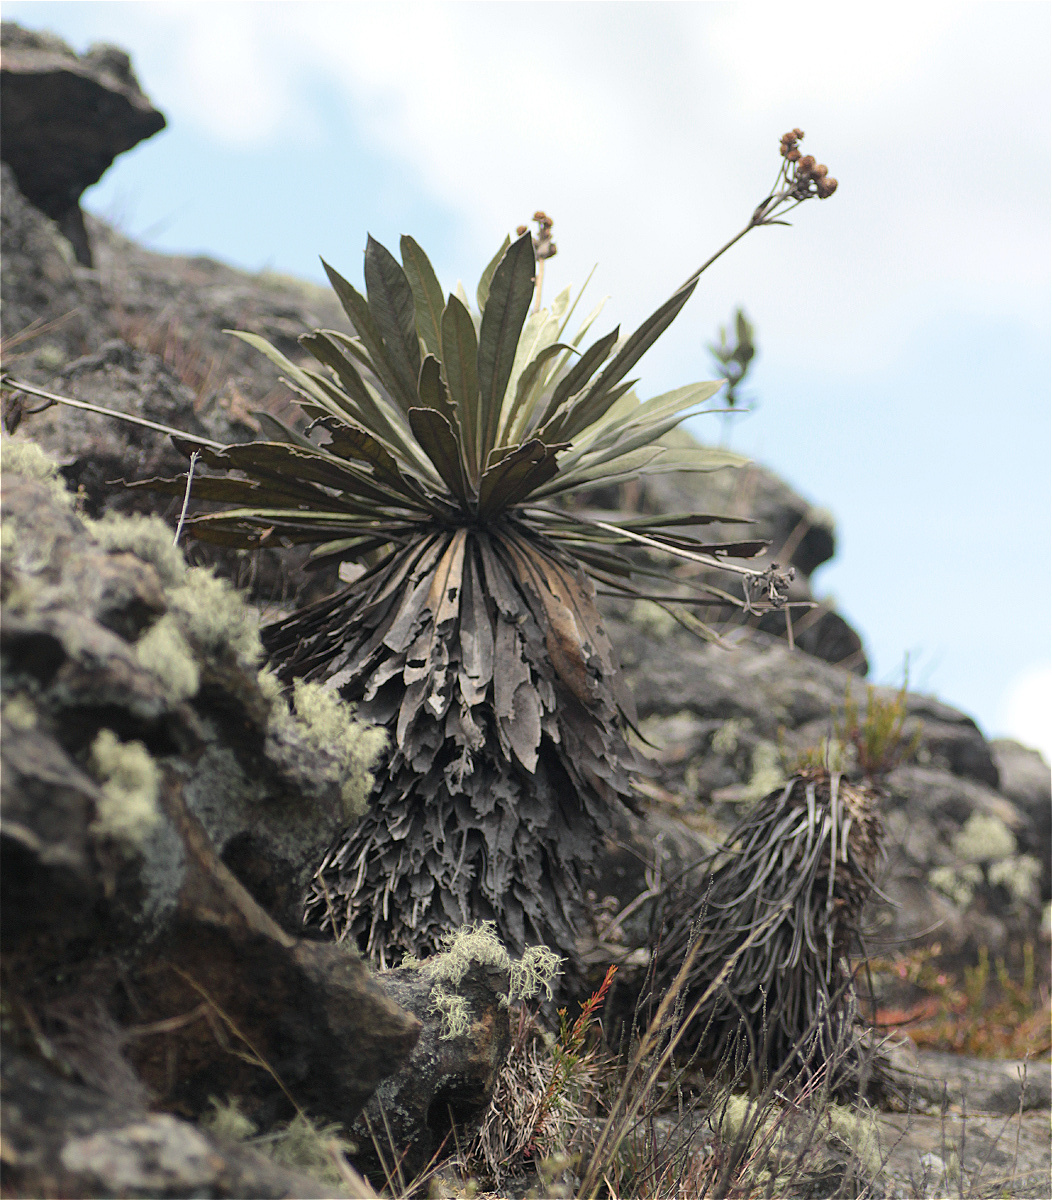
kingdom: Plantae
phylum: Tracheophyta
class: Magnoliopsida
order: Asterales
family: Asteraceae
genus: Espeletia
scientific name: Espeletia corymbosa
